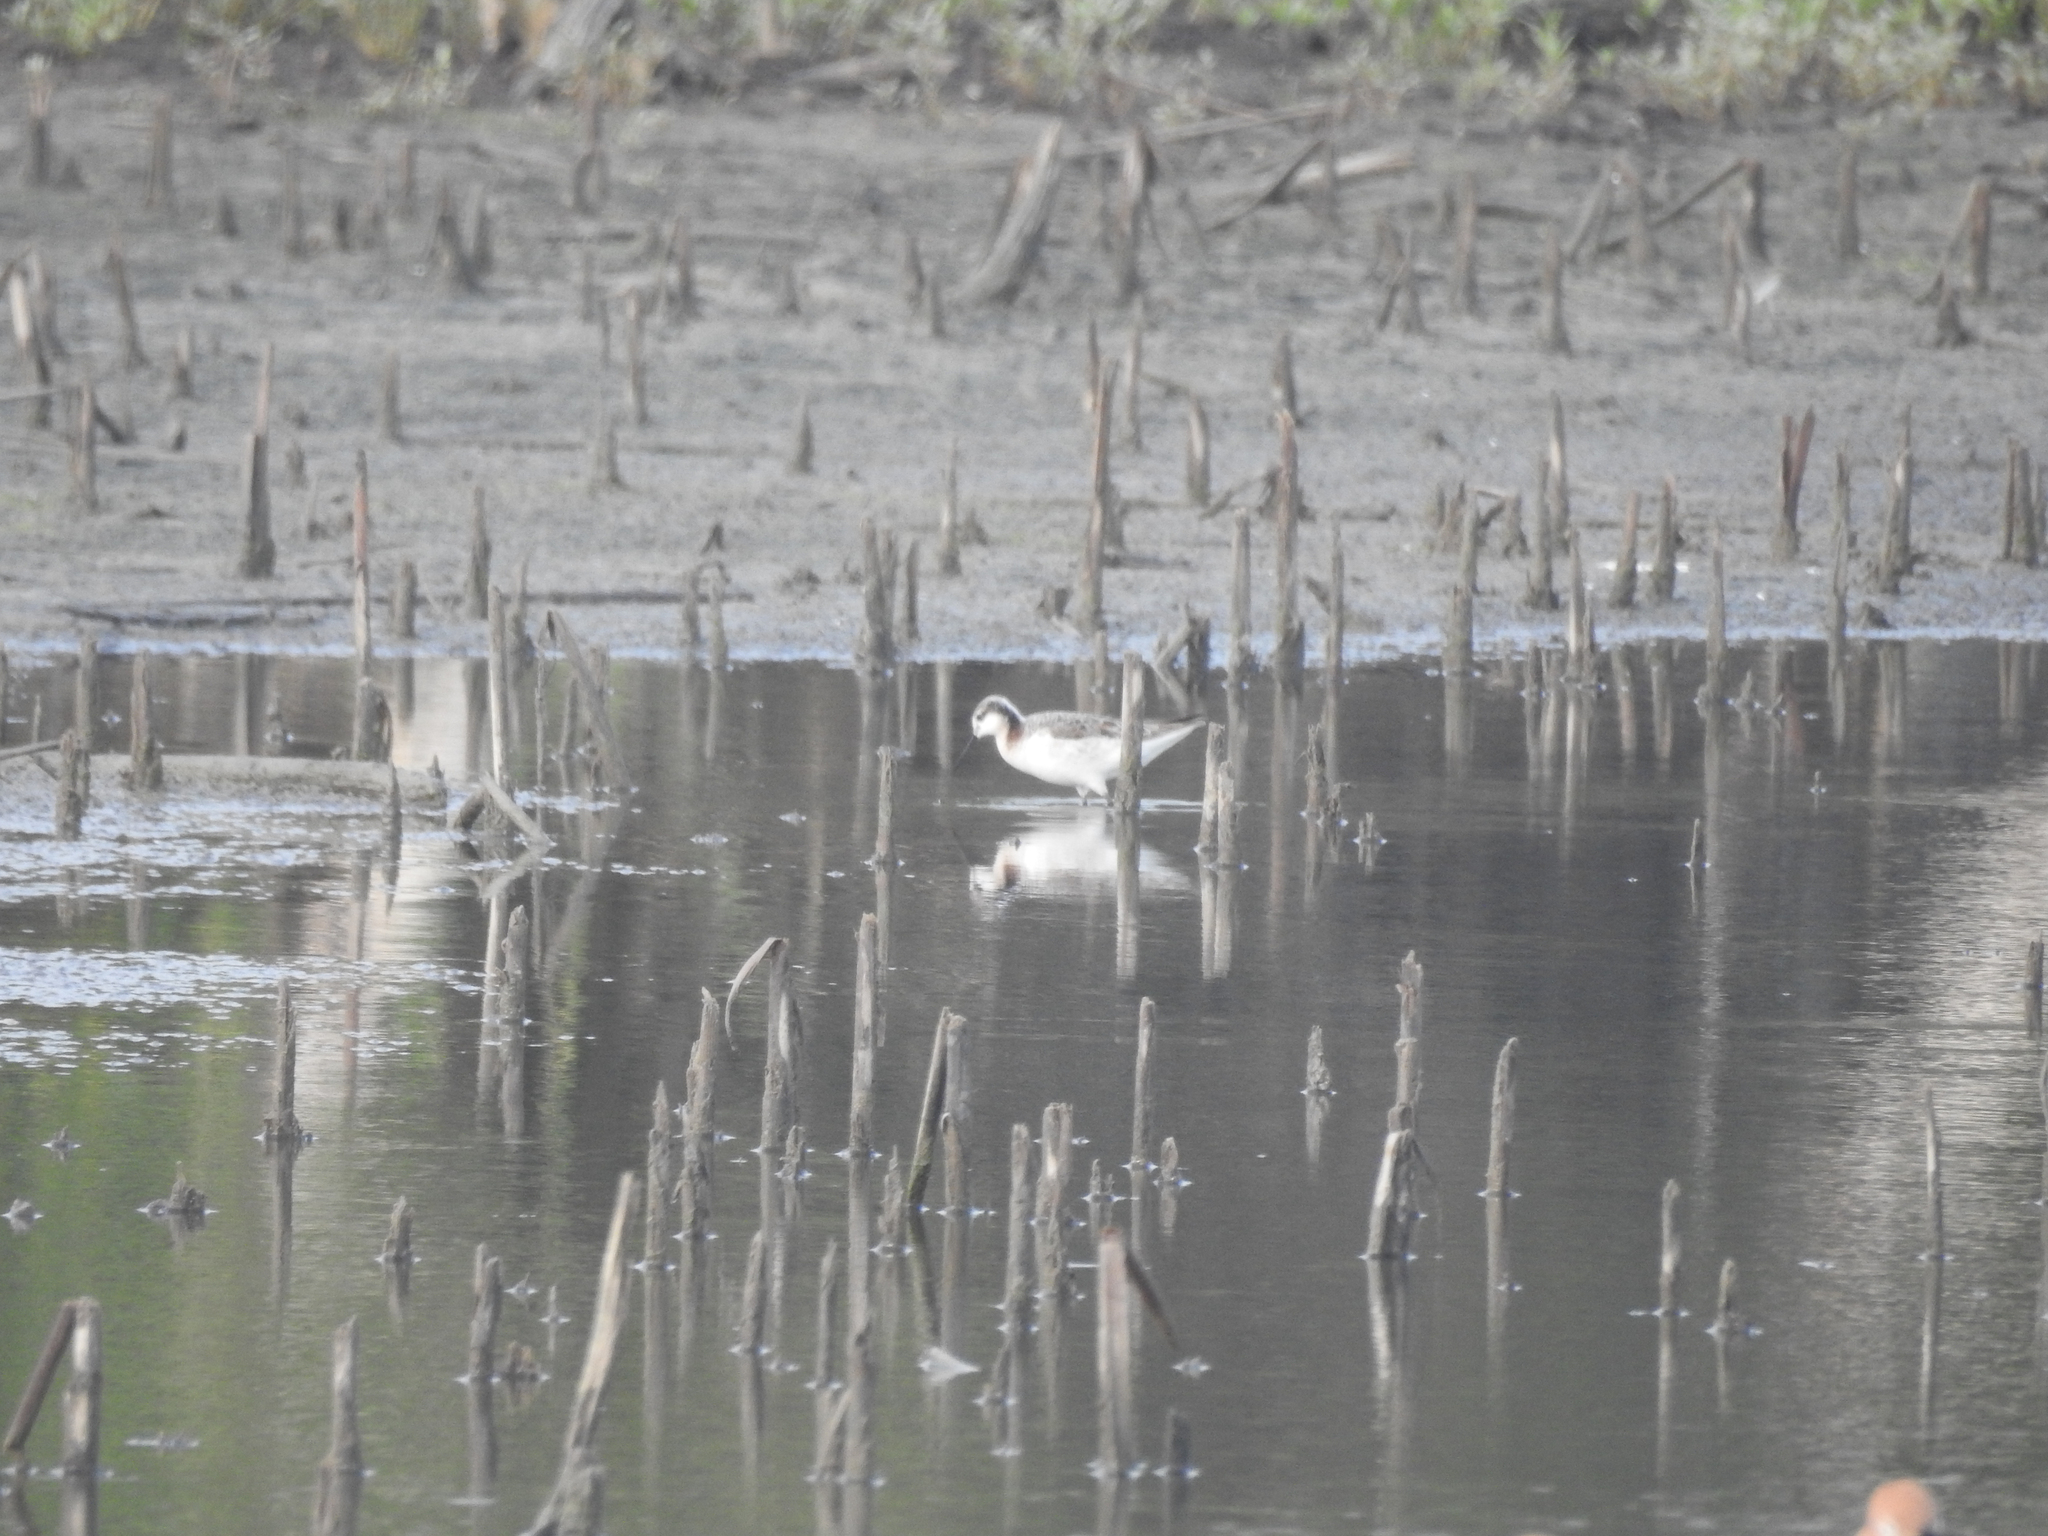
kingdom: Animalia
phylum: Chordata
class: Aves
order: Charadriiformes
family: Scolopacidae
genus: Phalaropus
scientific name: Phalaropus tricolor
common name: Wilson's phalarope
